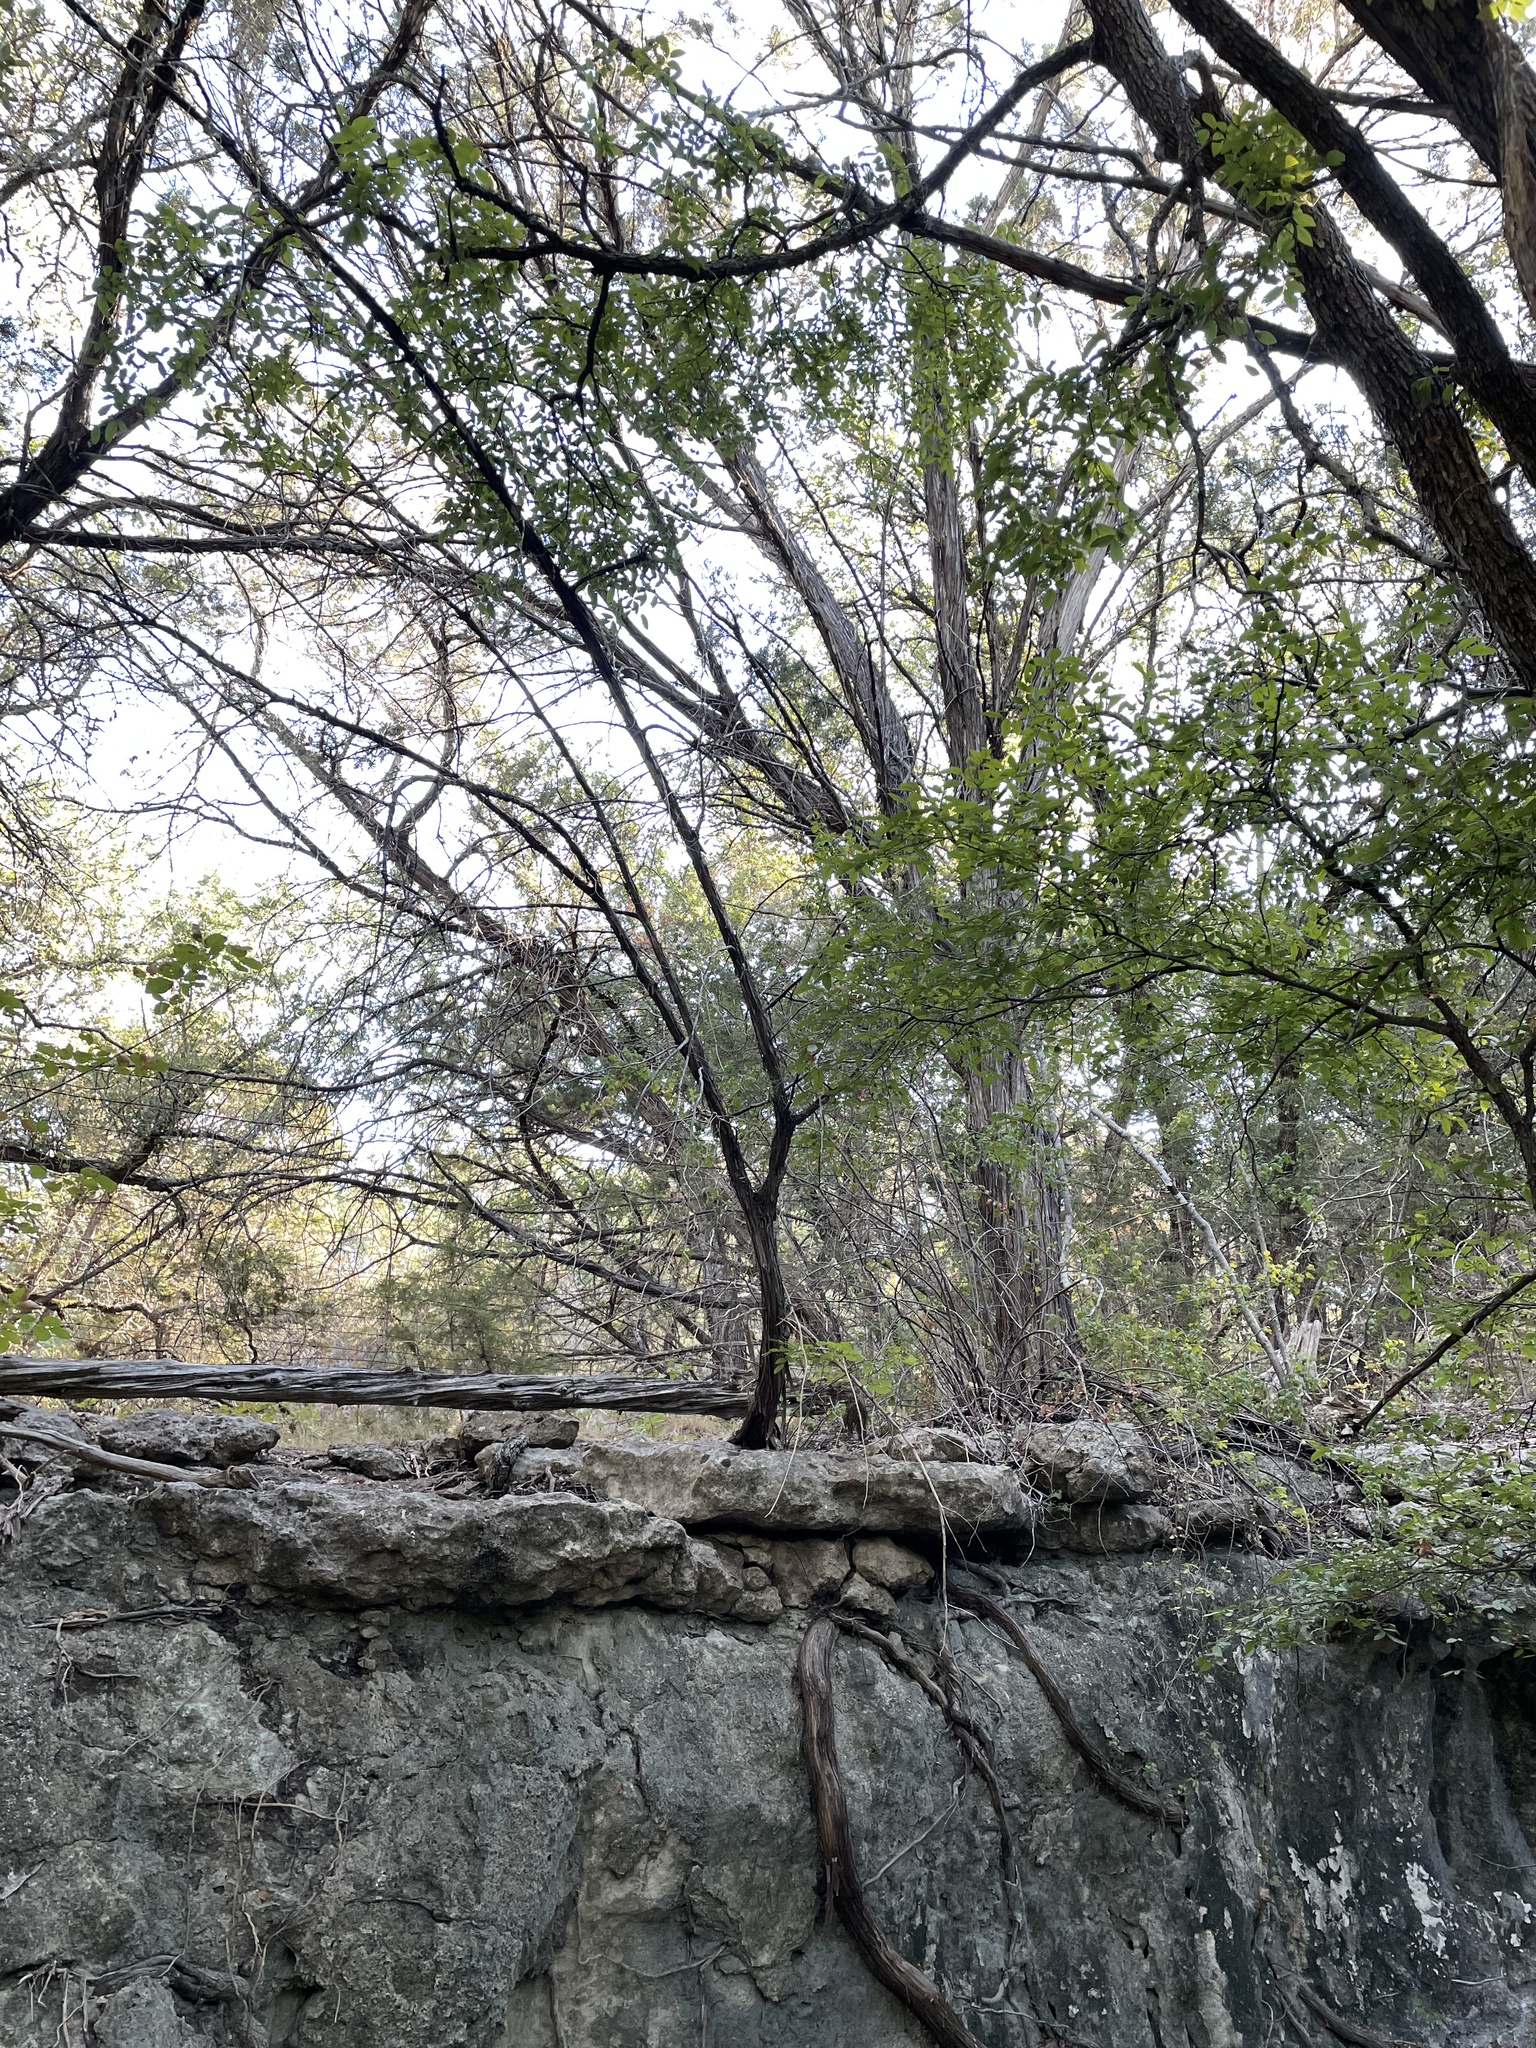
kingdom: Plantae
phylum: Tracheophyta
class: Pinopsida
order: Pinales
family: Cupressaceae
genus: Juniperus
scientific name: Juniperus ashei
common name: Mexican juniper
